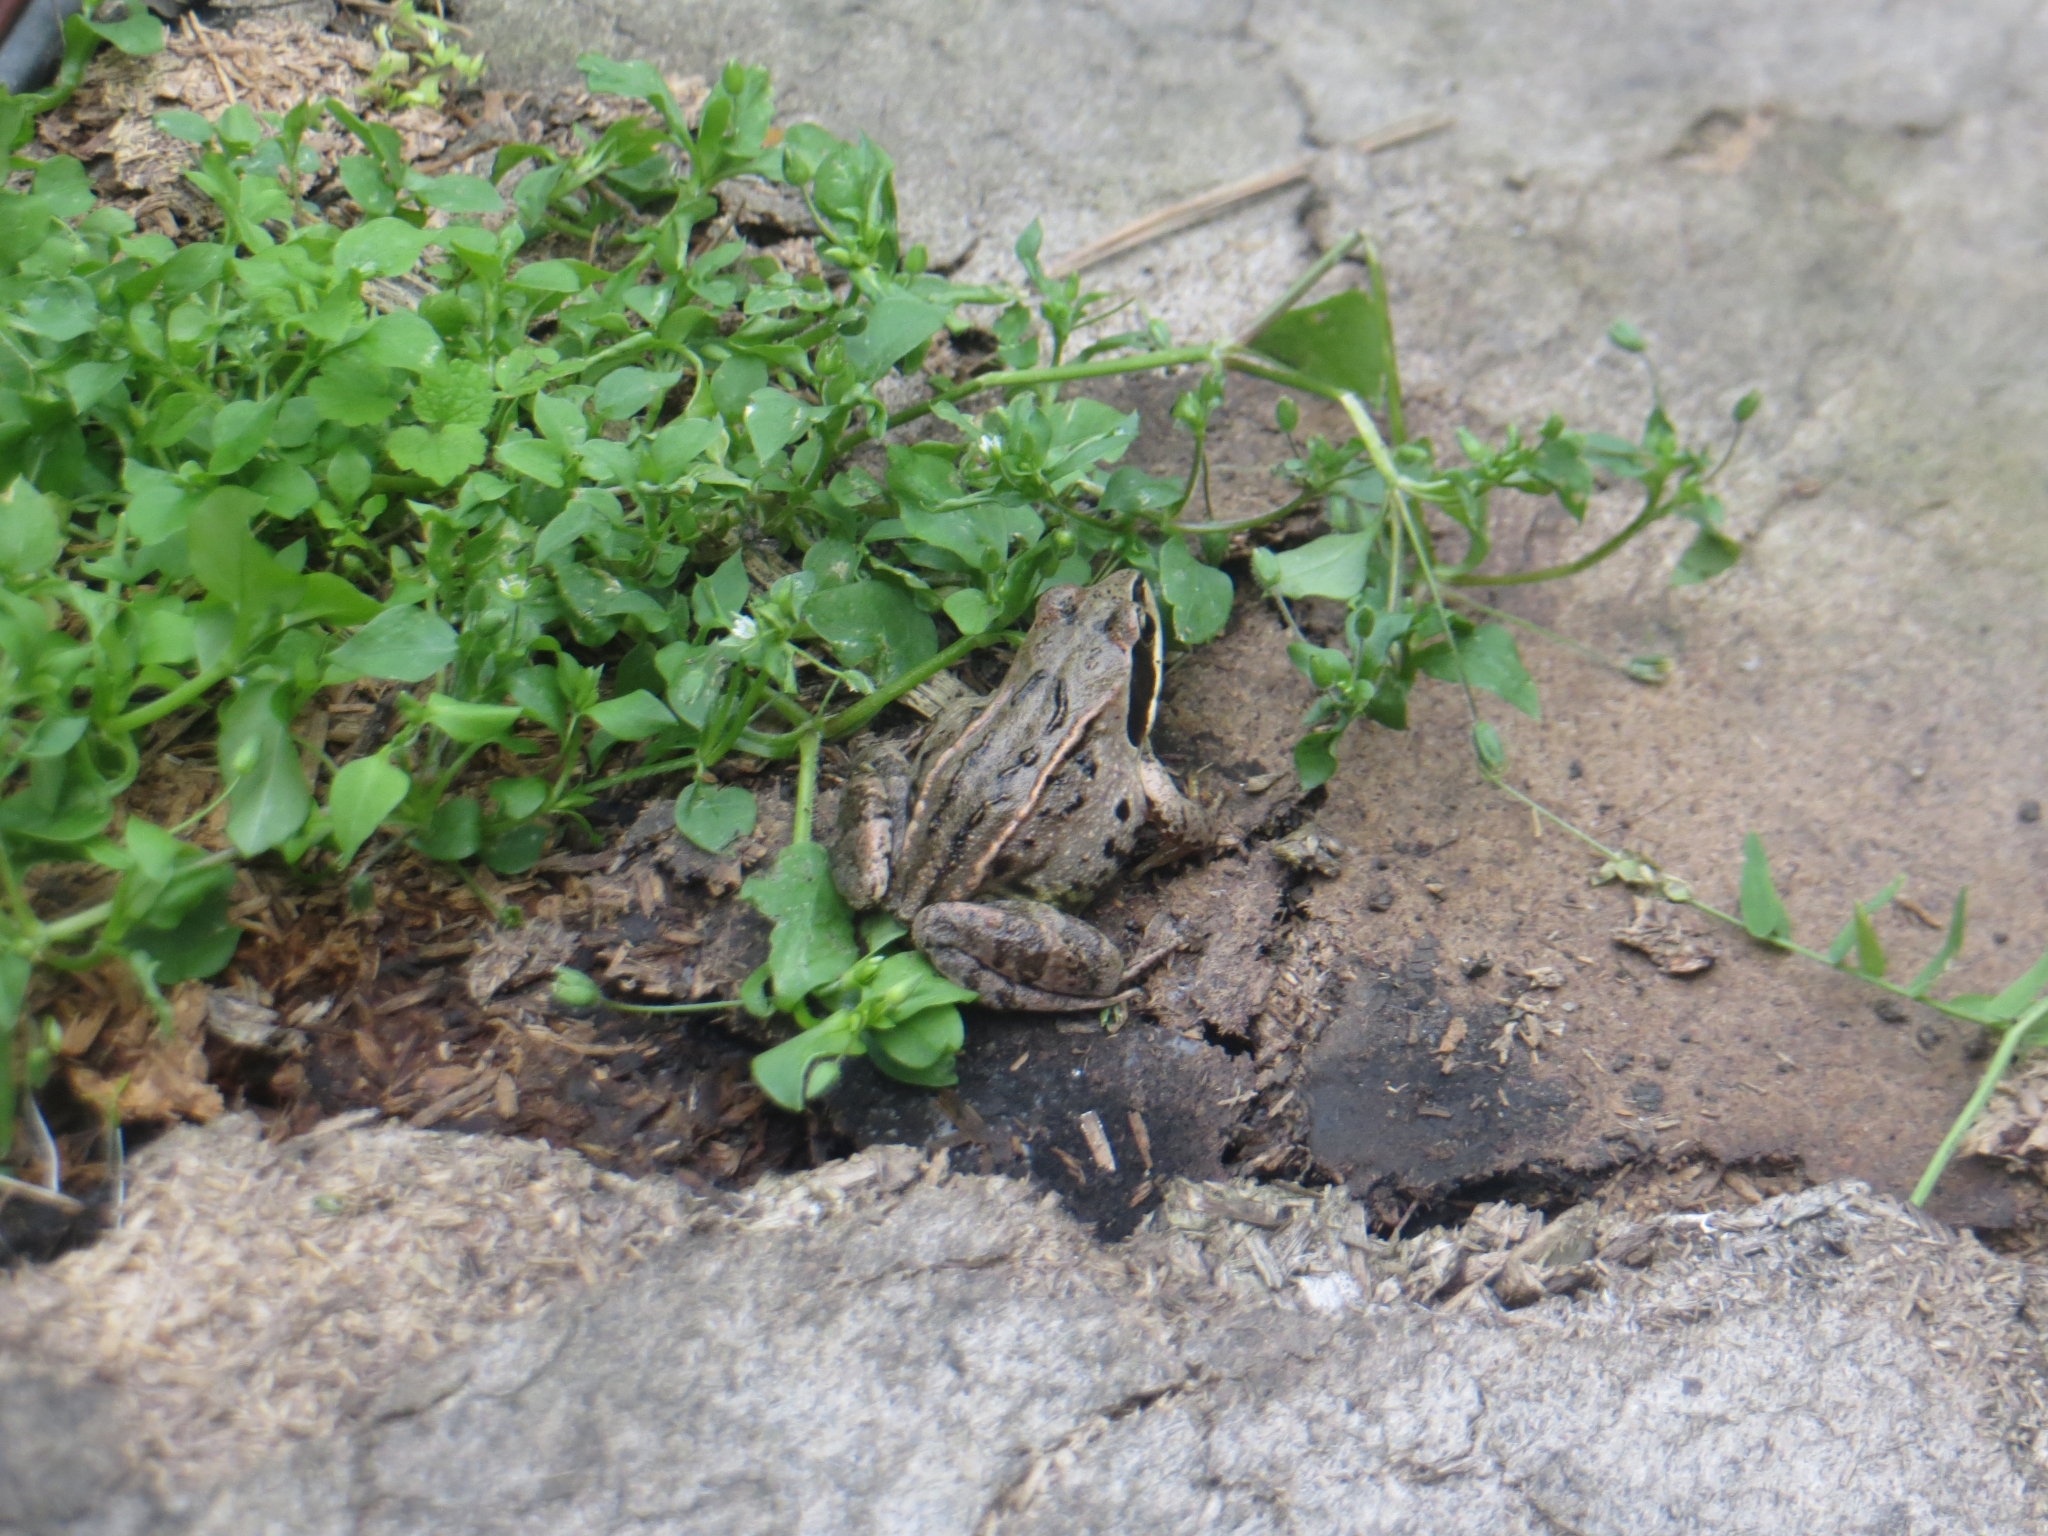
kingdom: Animalia
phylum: Chordata
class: Amphibia
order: Anura
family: Ranidae
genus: Rana
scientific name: Rana arvalis
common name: Moor frog
